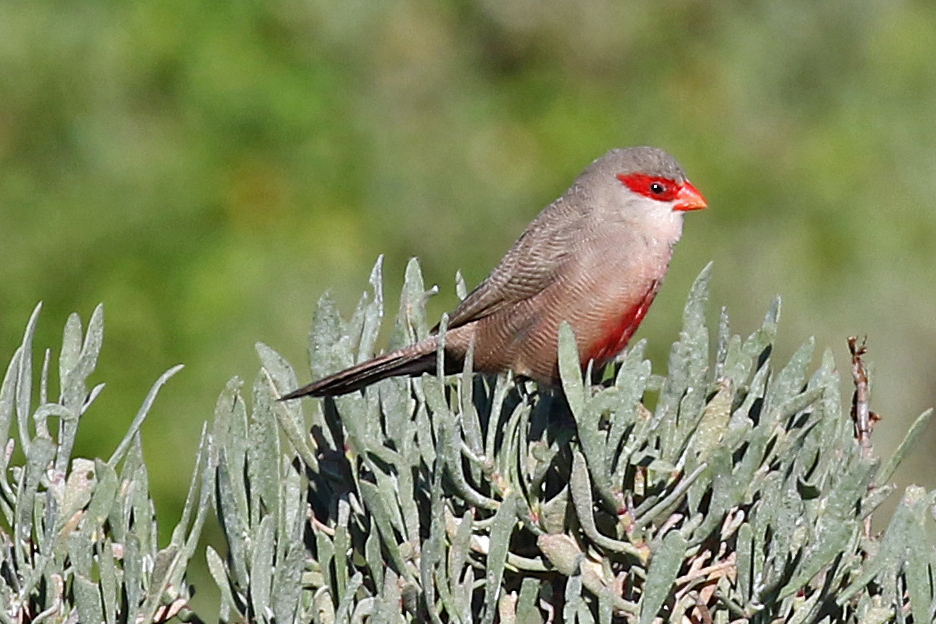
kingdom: Animalia
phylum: Chordata
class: Aves
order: Passeriformes
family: Estrildidae
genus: Estrilda
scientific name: Estrilda astrild
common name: Common waxbill
